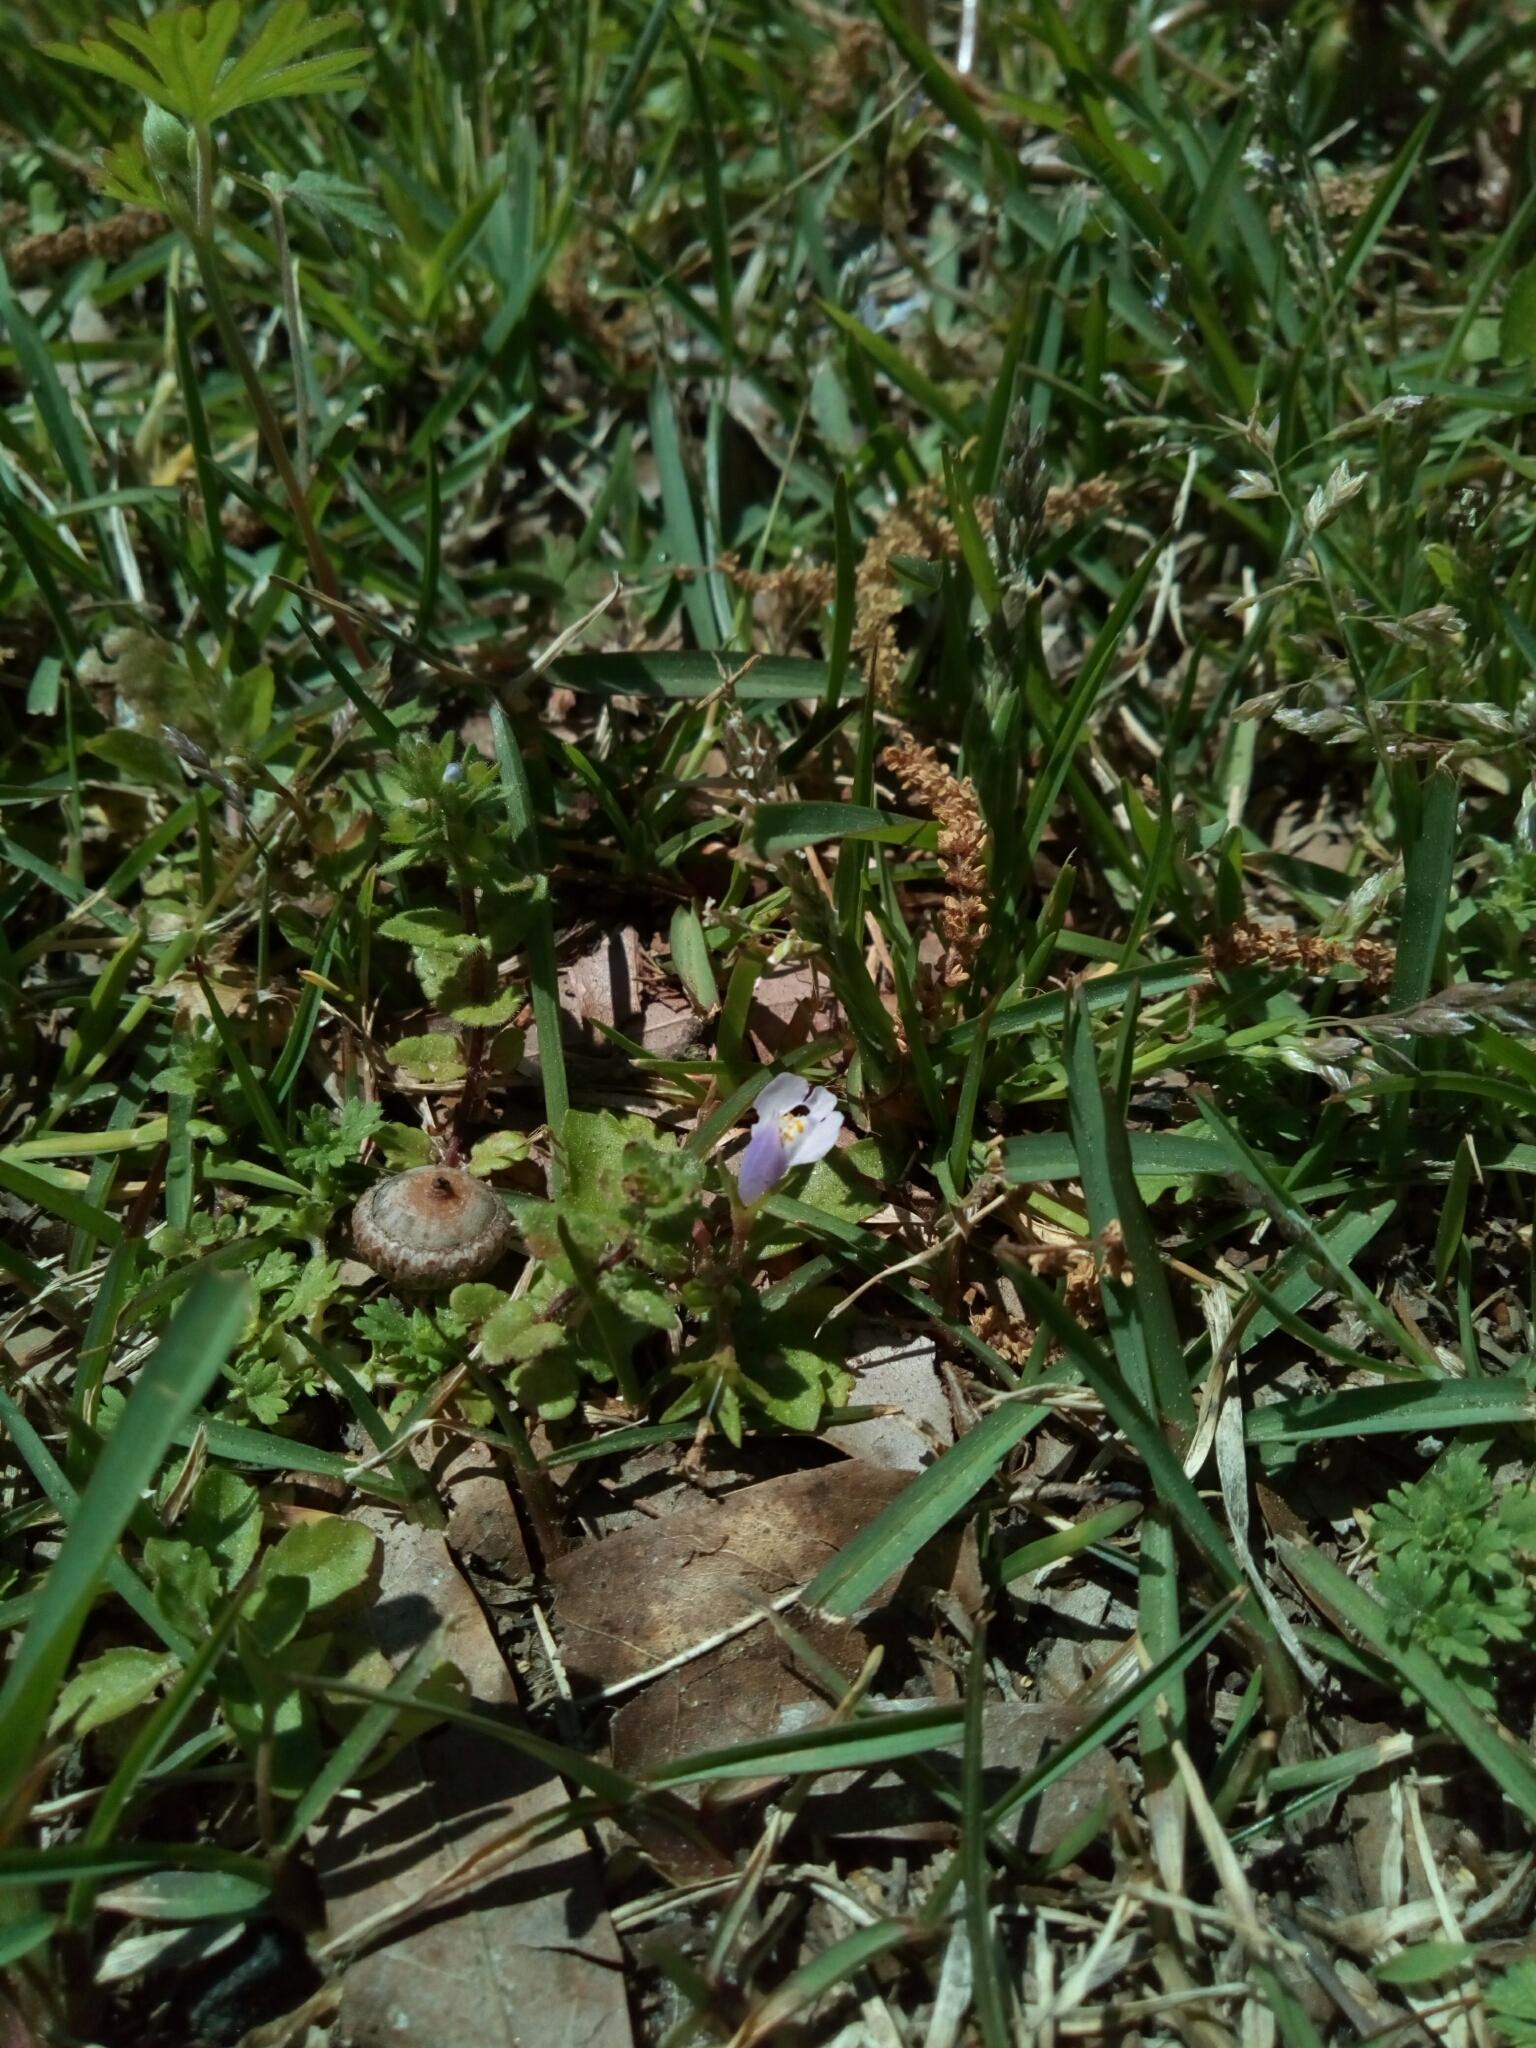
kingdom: Plantae
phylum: Tracheophyta
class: Magnoliopsida
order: Lamiales
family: Mazaceae
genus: Mazus
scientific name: Mazus pumilus
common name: Japanese mazus
